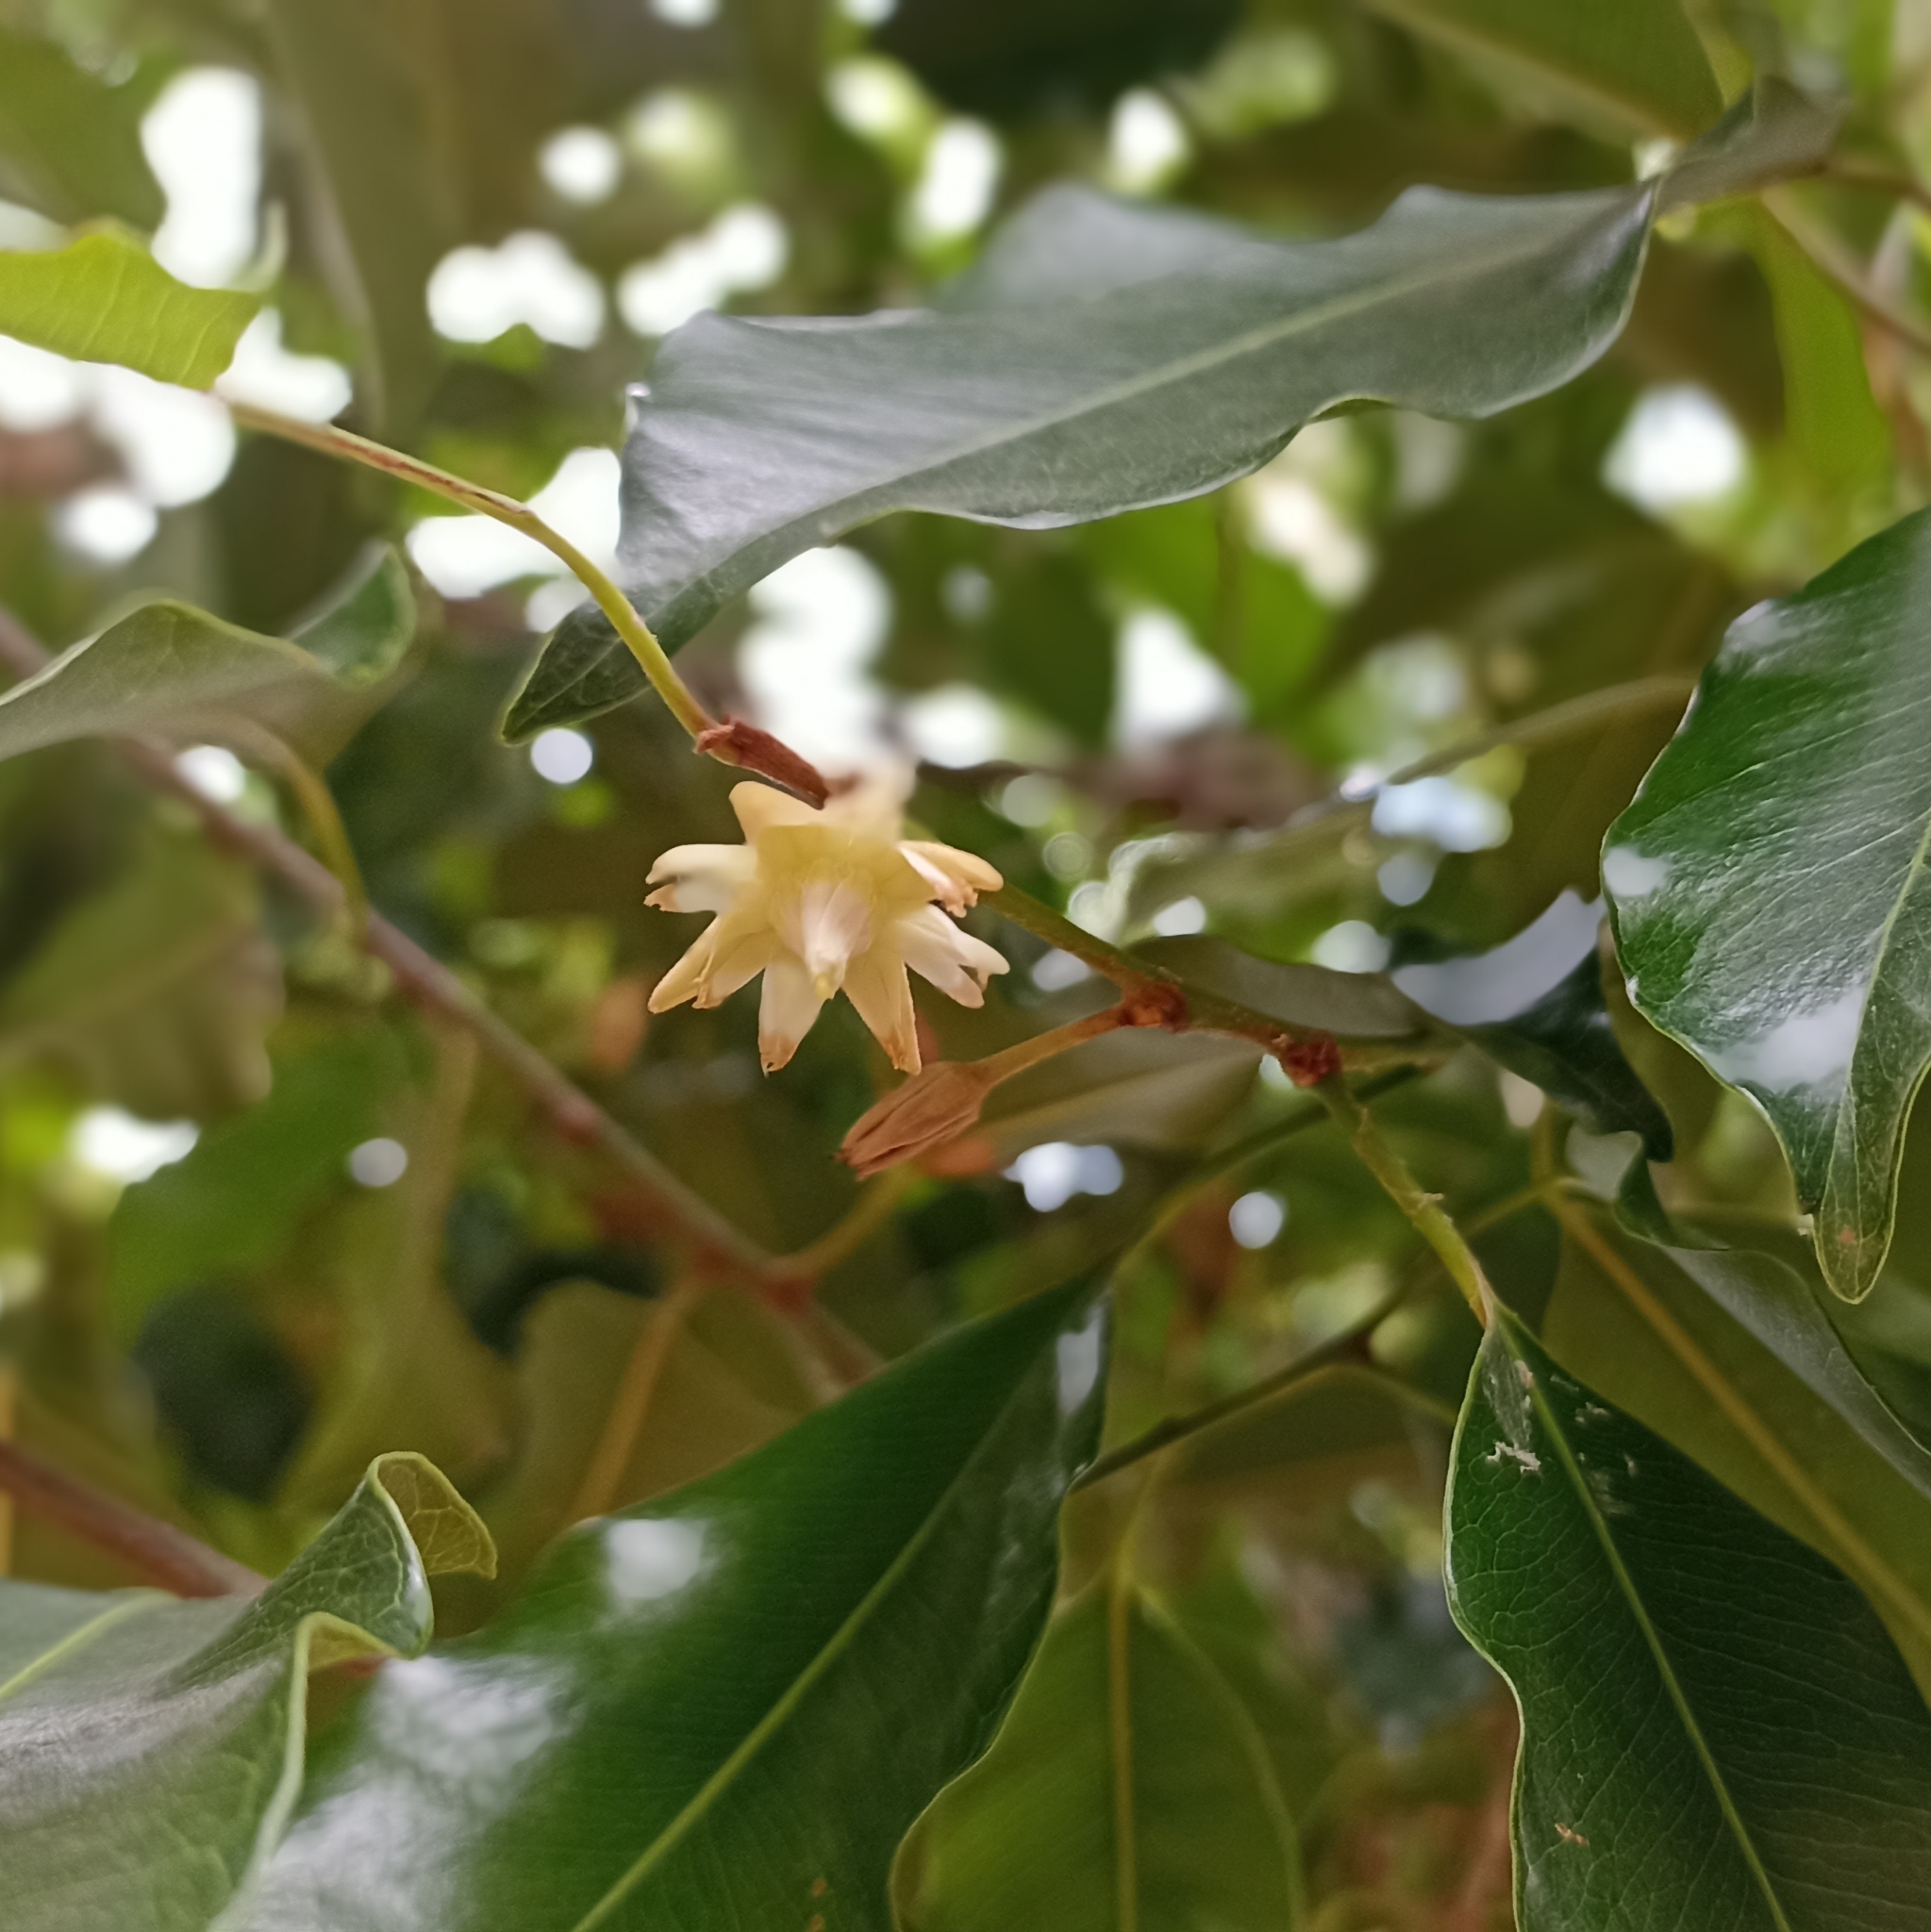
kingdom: Plantae
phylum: Tracheophyta
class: Magnoliopsida
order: Ericales
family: Sapotaceae
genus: Mimusops
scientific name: Mimusops elengi
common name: Spanish cherry
